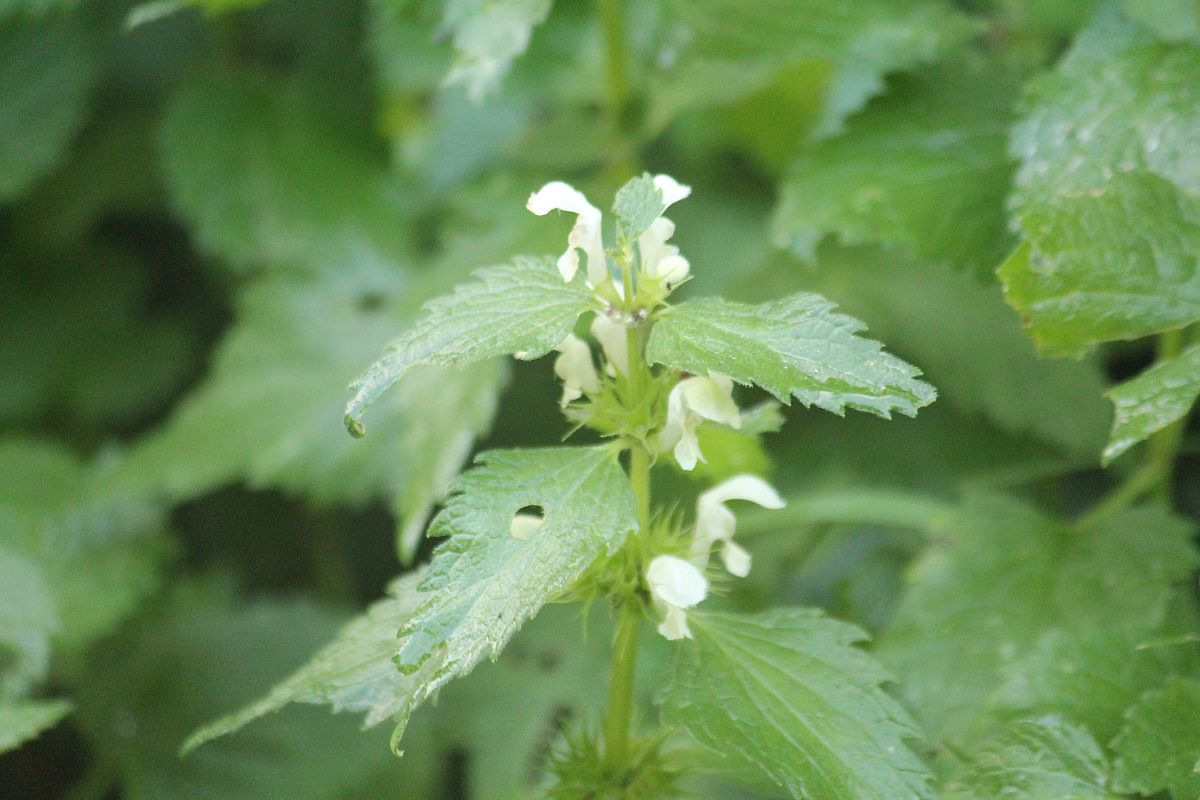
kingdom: Plantae
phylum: Tracheophyta
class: Magnoliopsida
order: Lamiales
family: Lamiaceae
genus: Lamium
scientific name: Lamium album
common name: White dead-nettle
